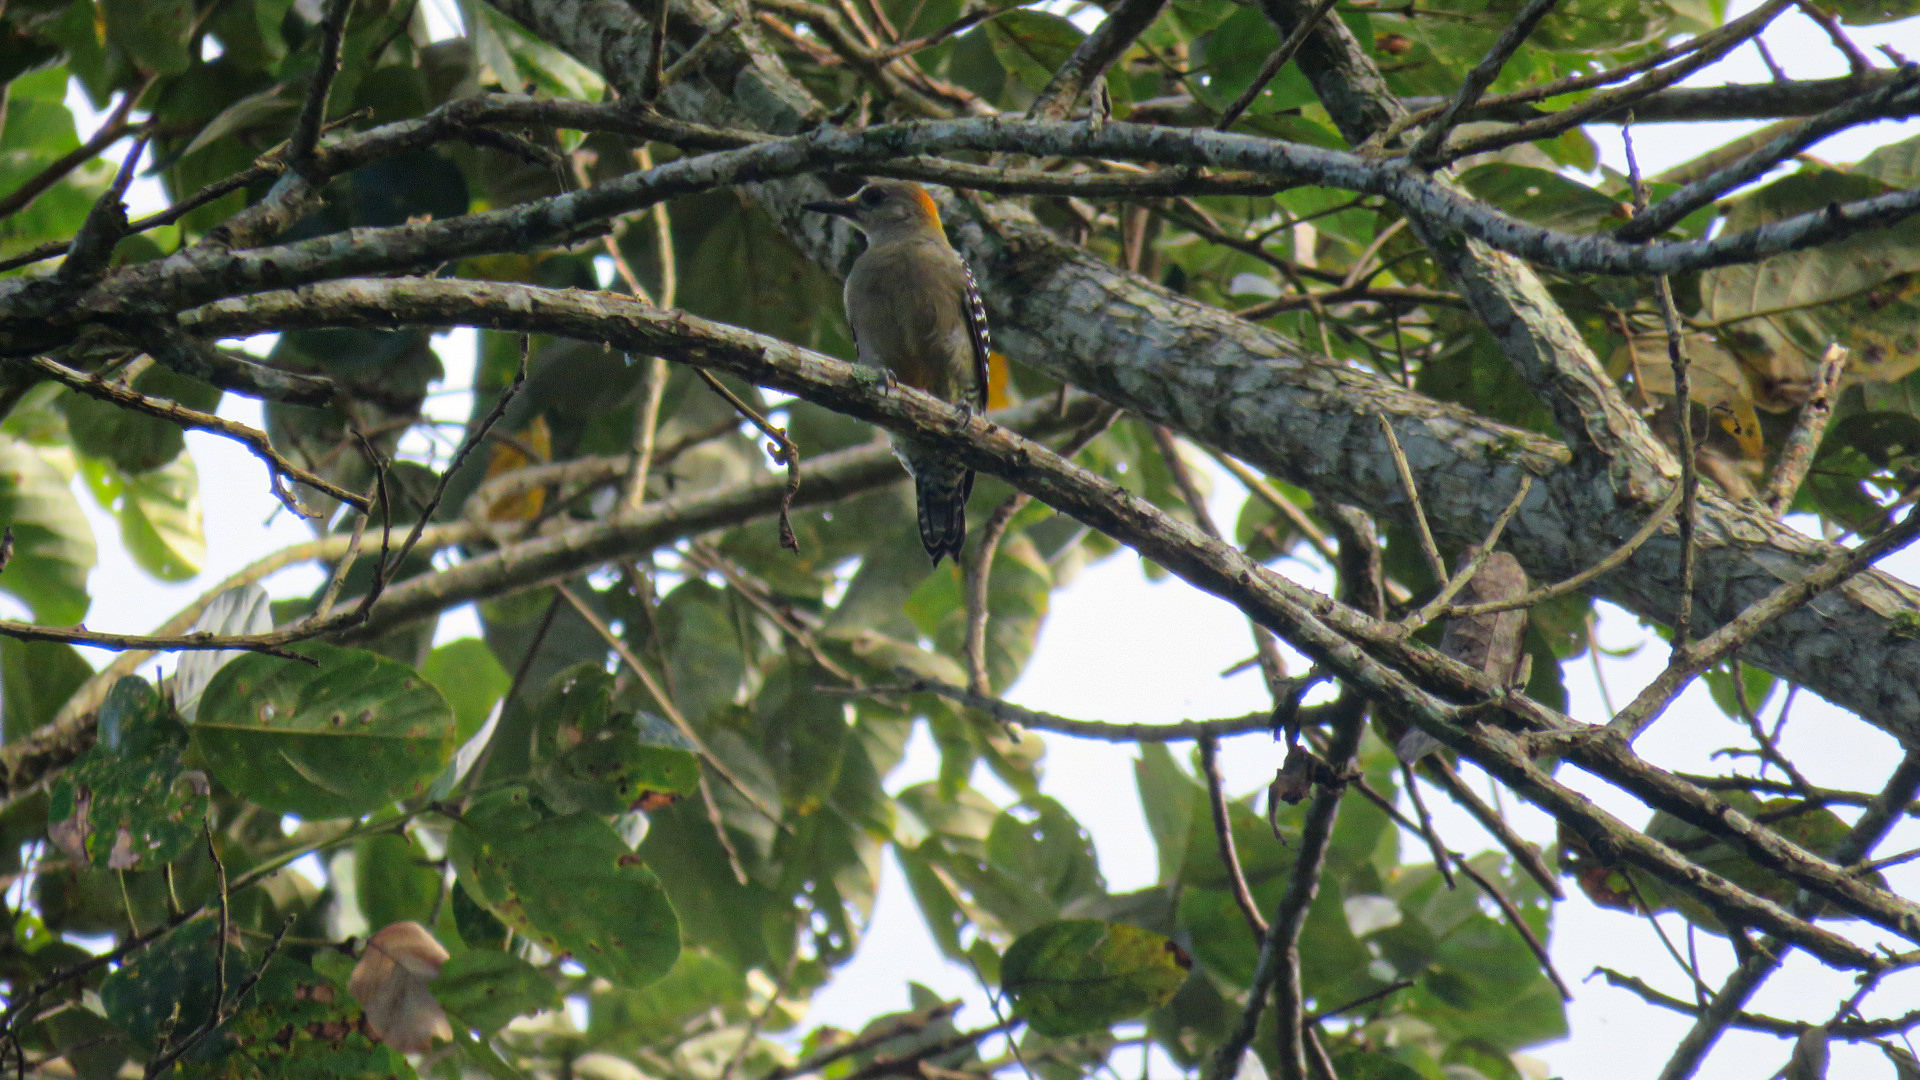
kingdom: Animalia
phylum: Chordata
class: Aves
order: Piciformes
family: Picidae
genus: Melanerpes
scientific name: Melanerpes hoffmannii
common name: Hoffmann's woodpecker
